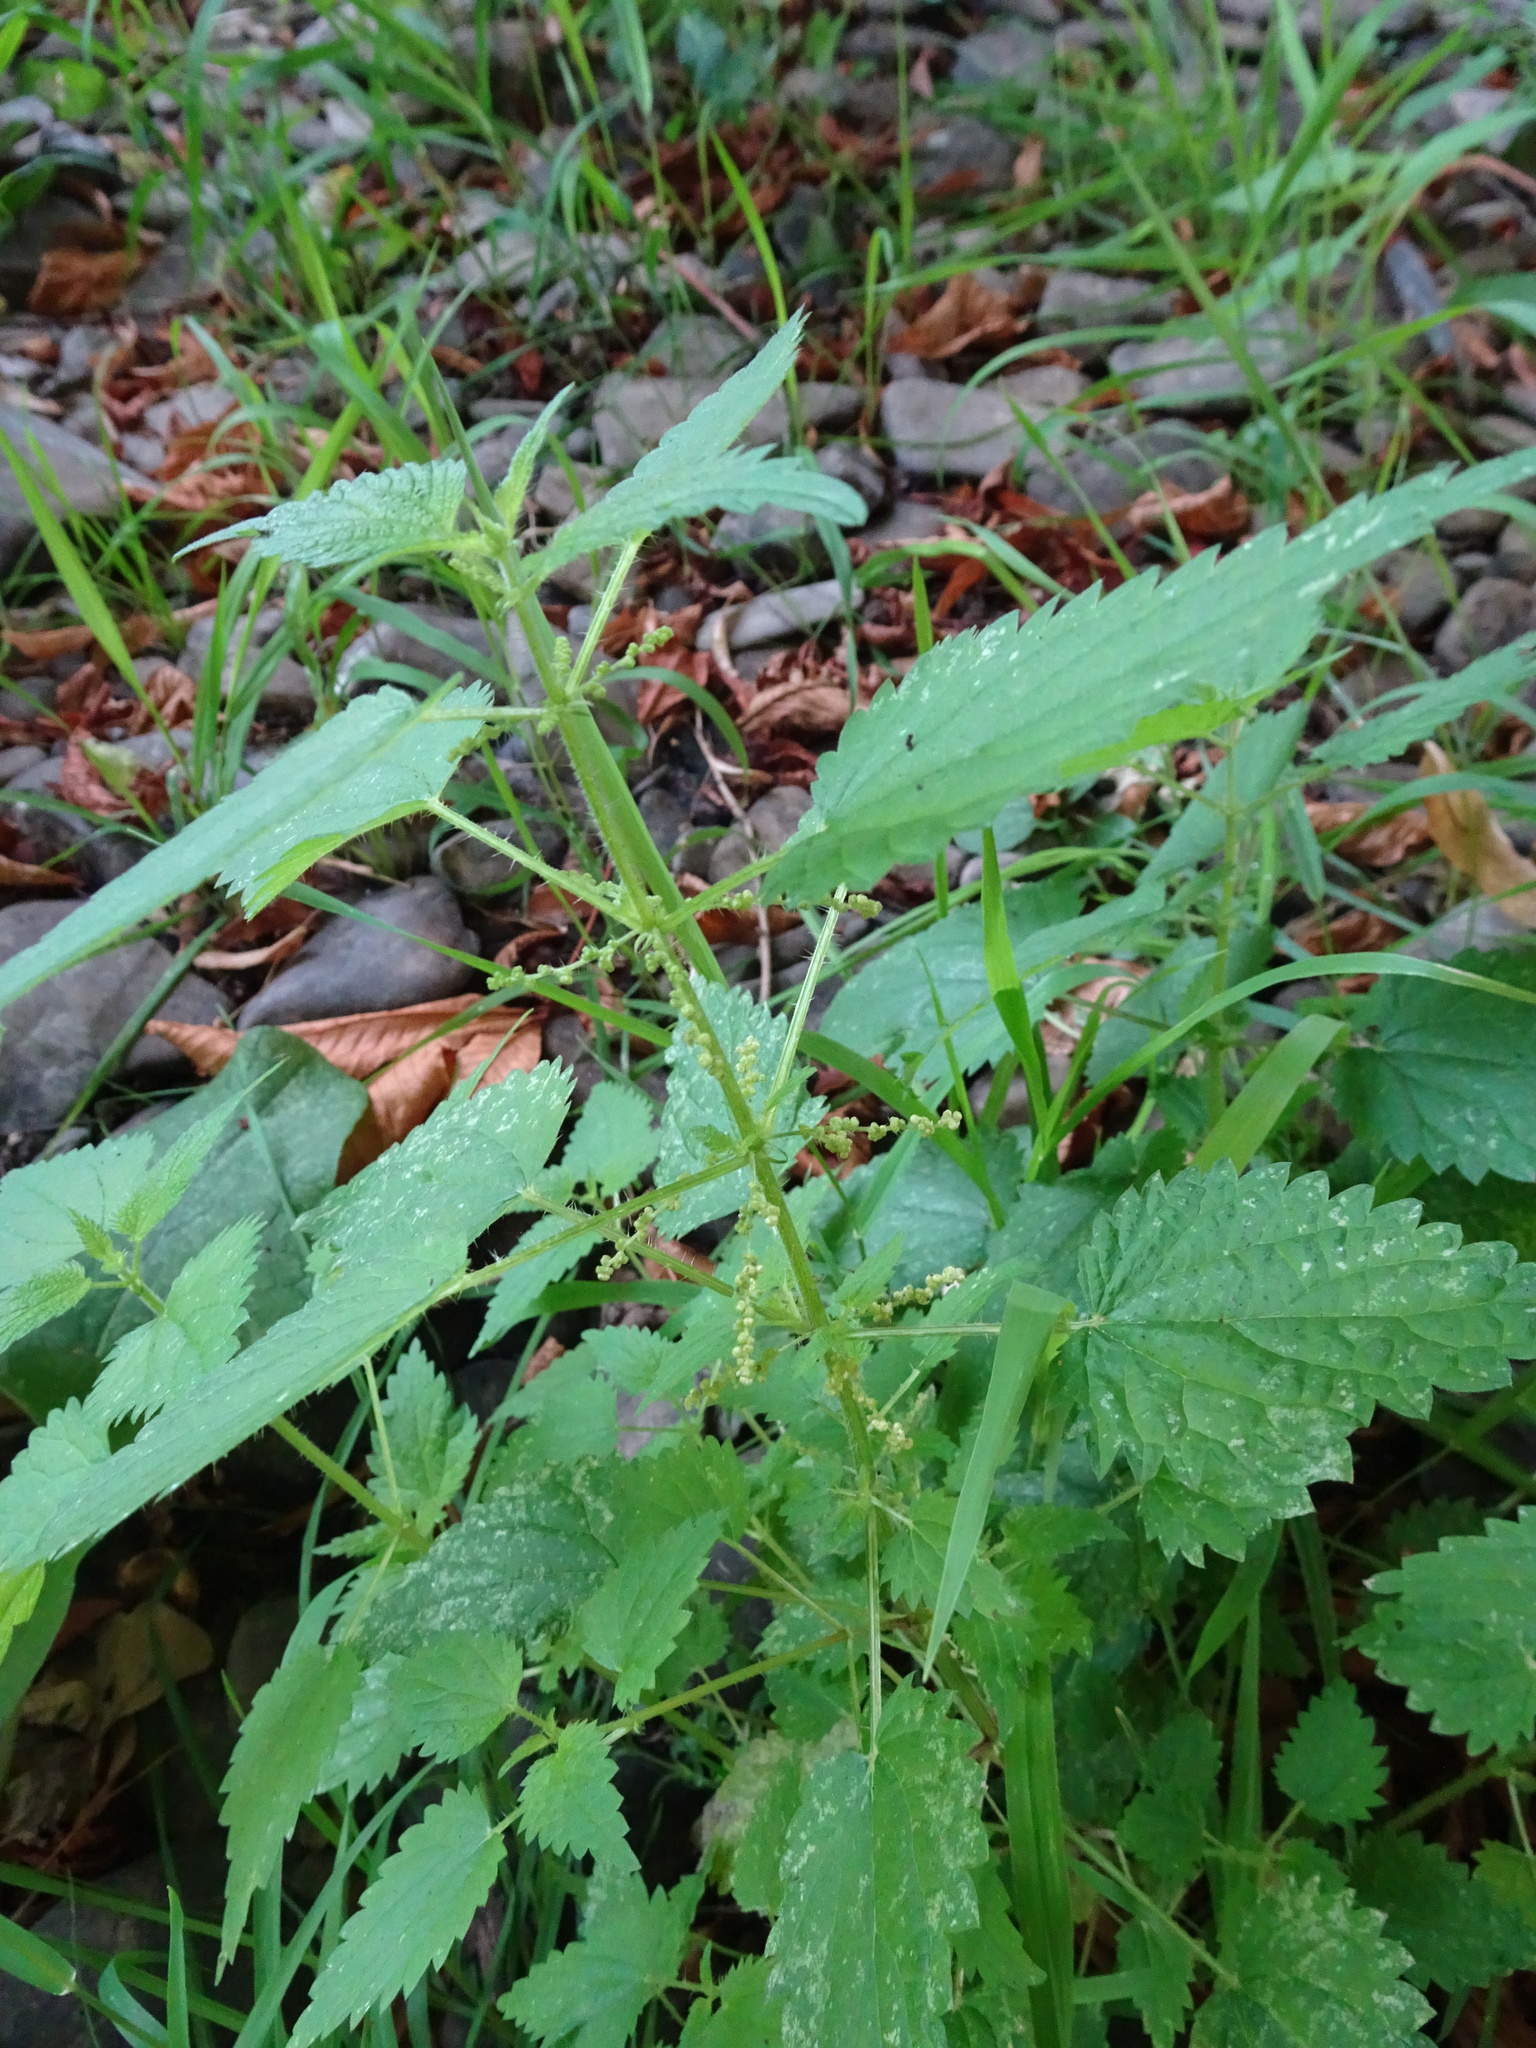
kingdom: Plantae
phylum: Tracheophyta
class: Magnoliopsida
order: Rosales
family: Urticaceae
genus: Urtica
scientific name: Urtica dioica
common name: Common nettle
